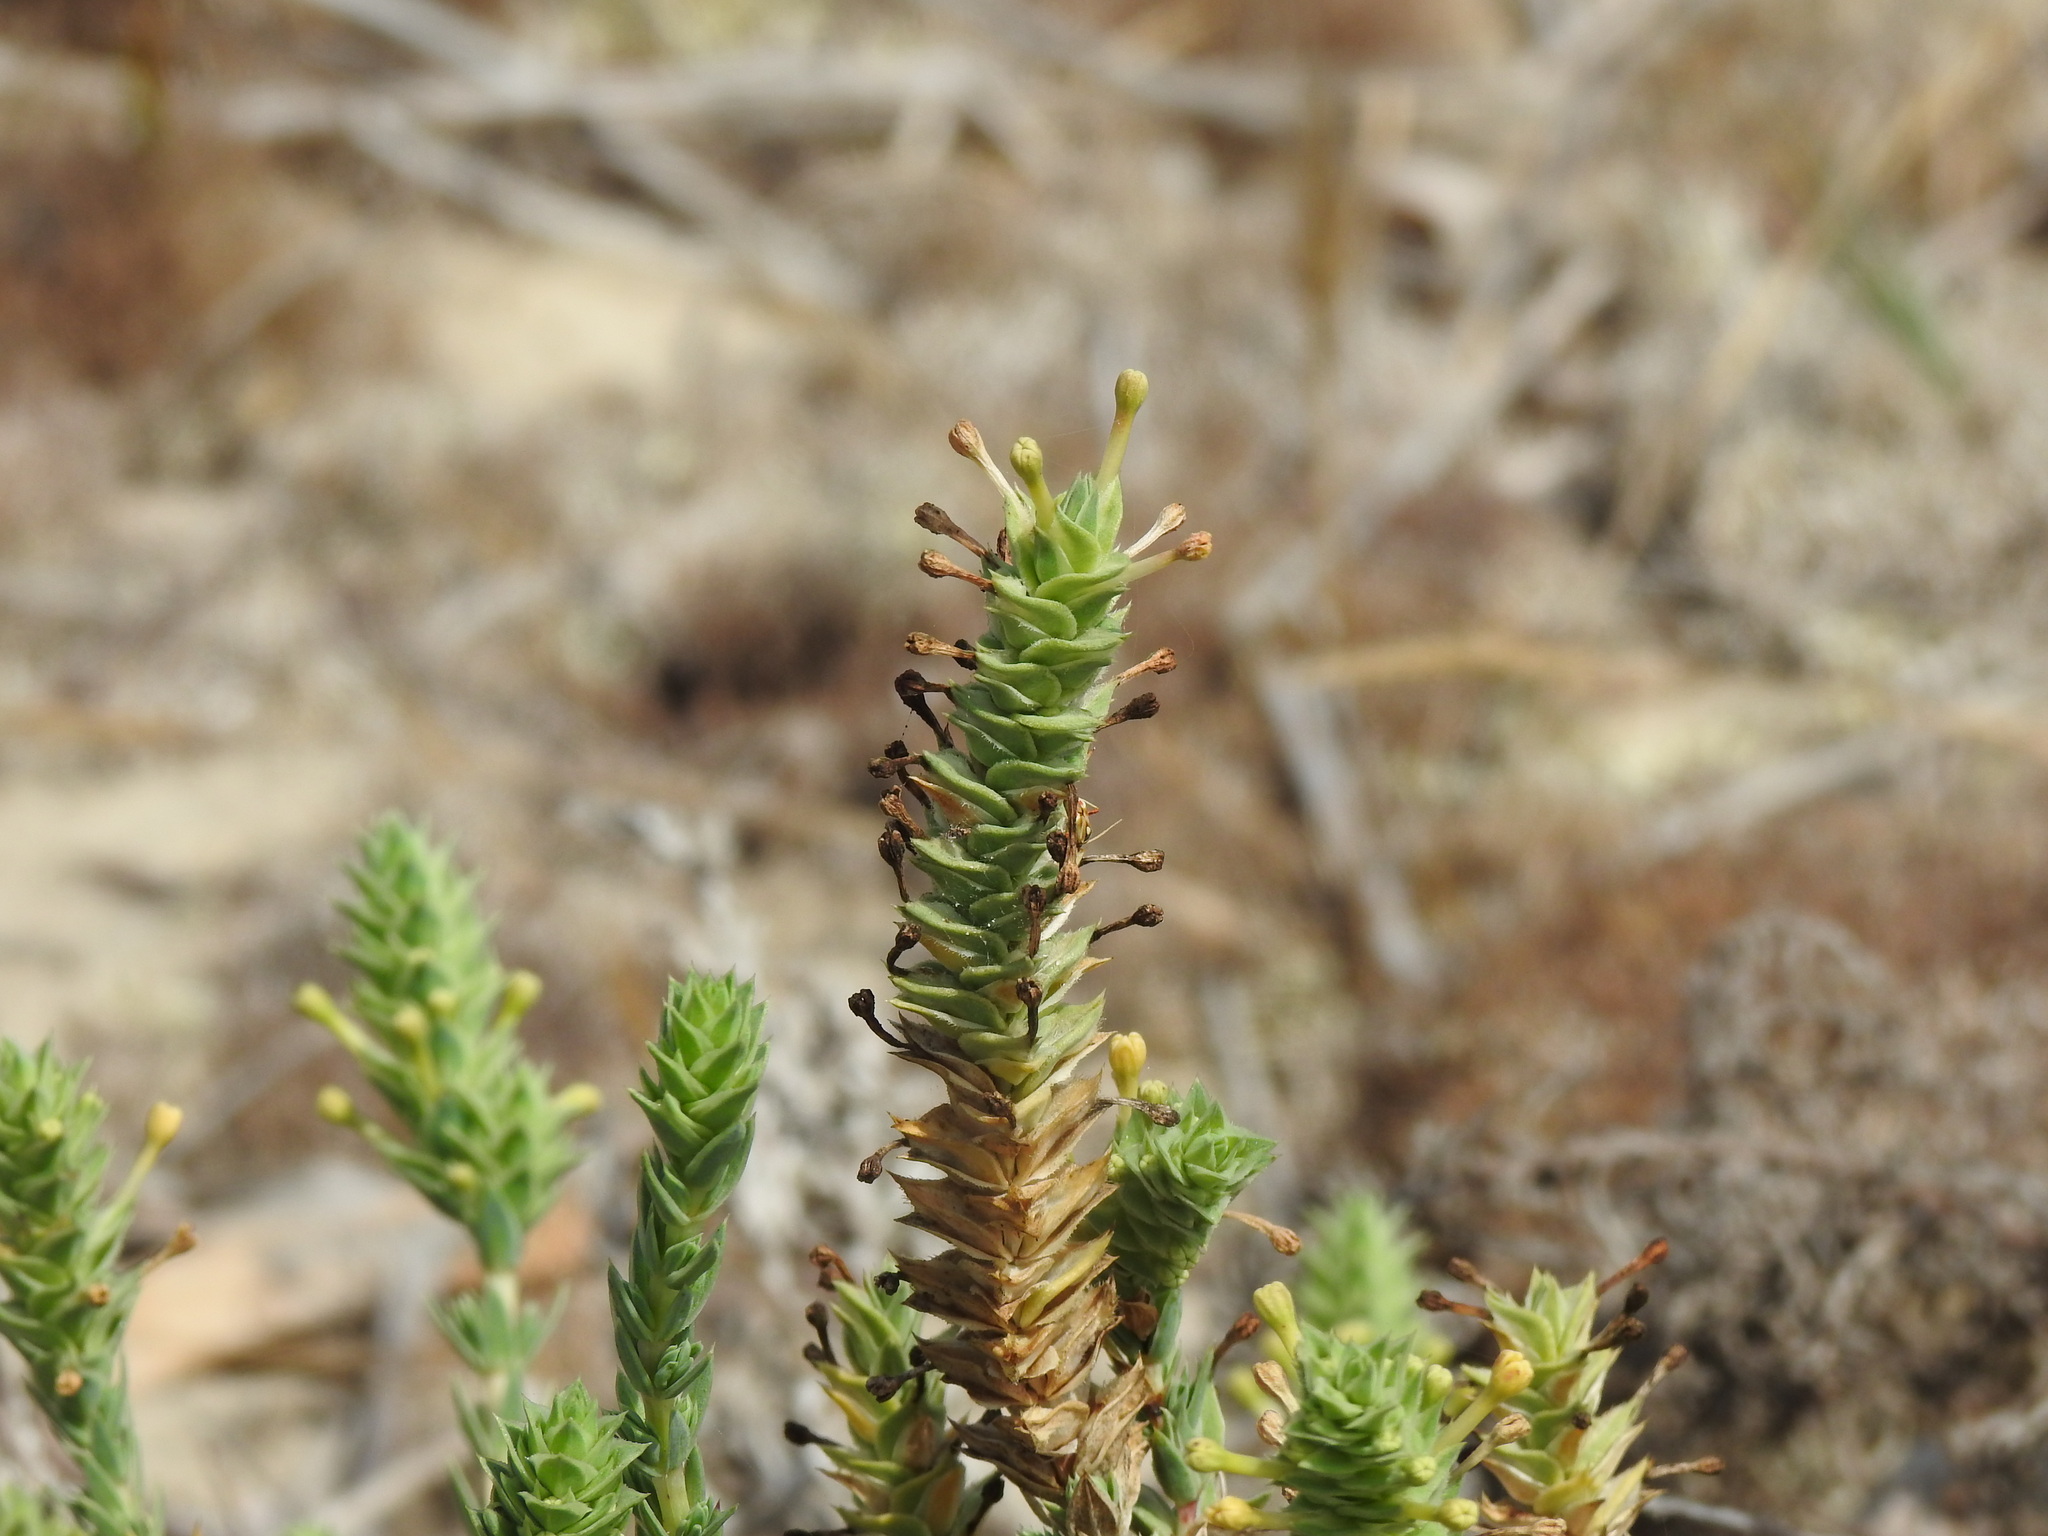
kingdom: Plantae
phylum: Tracheophyta
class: Magnoliopsida
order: Gentianales
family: Rubiaceae
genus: Crucianella
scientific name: Crucianella maritima
